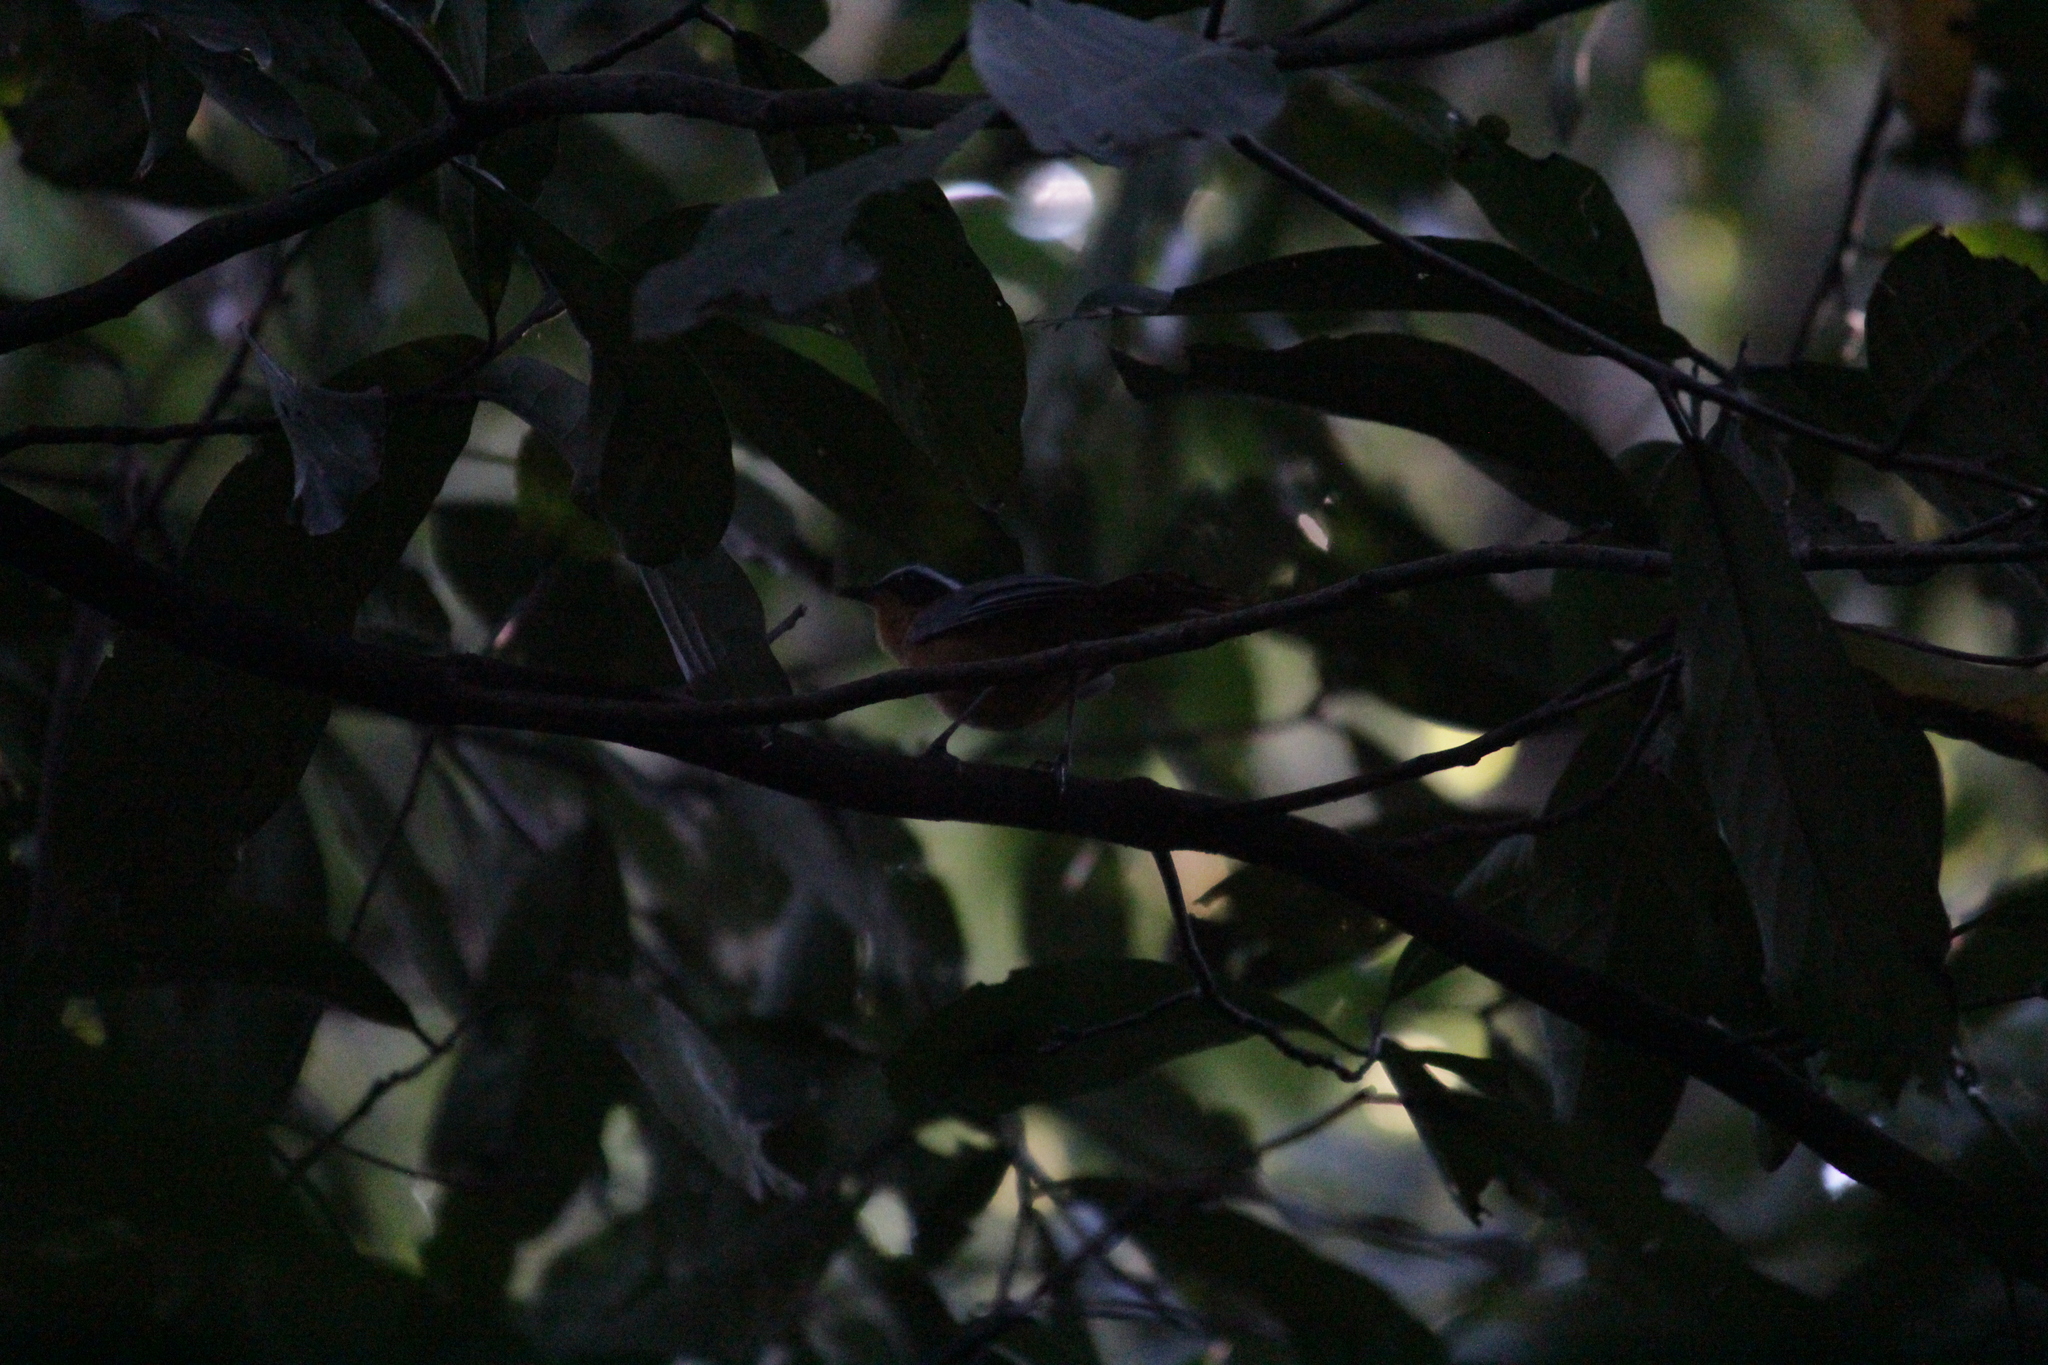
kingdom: Animalia
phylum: Chordata
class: Aves
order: Passeriformes
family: Muscicapidae
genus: Cossypha
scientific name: Cossypha heuglini
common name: White-browed robin-chat
